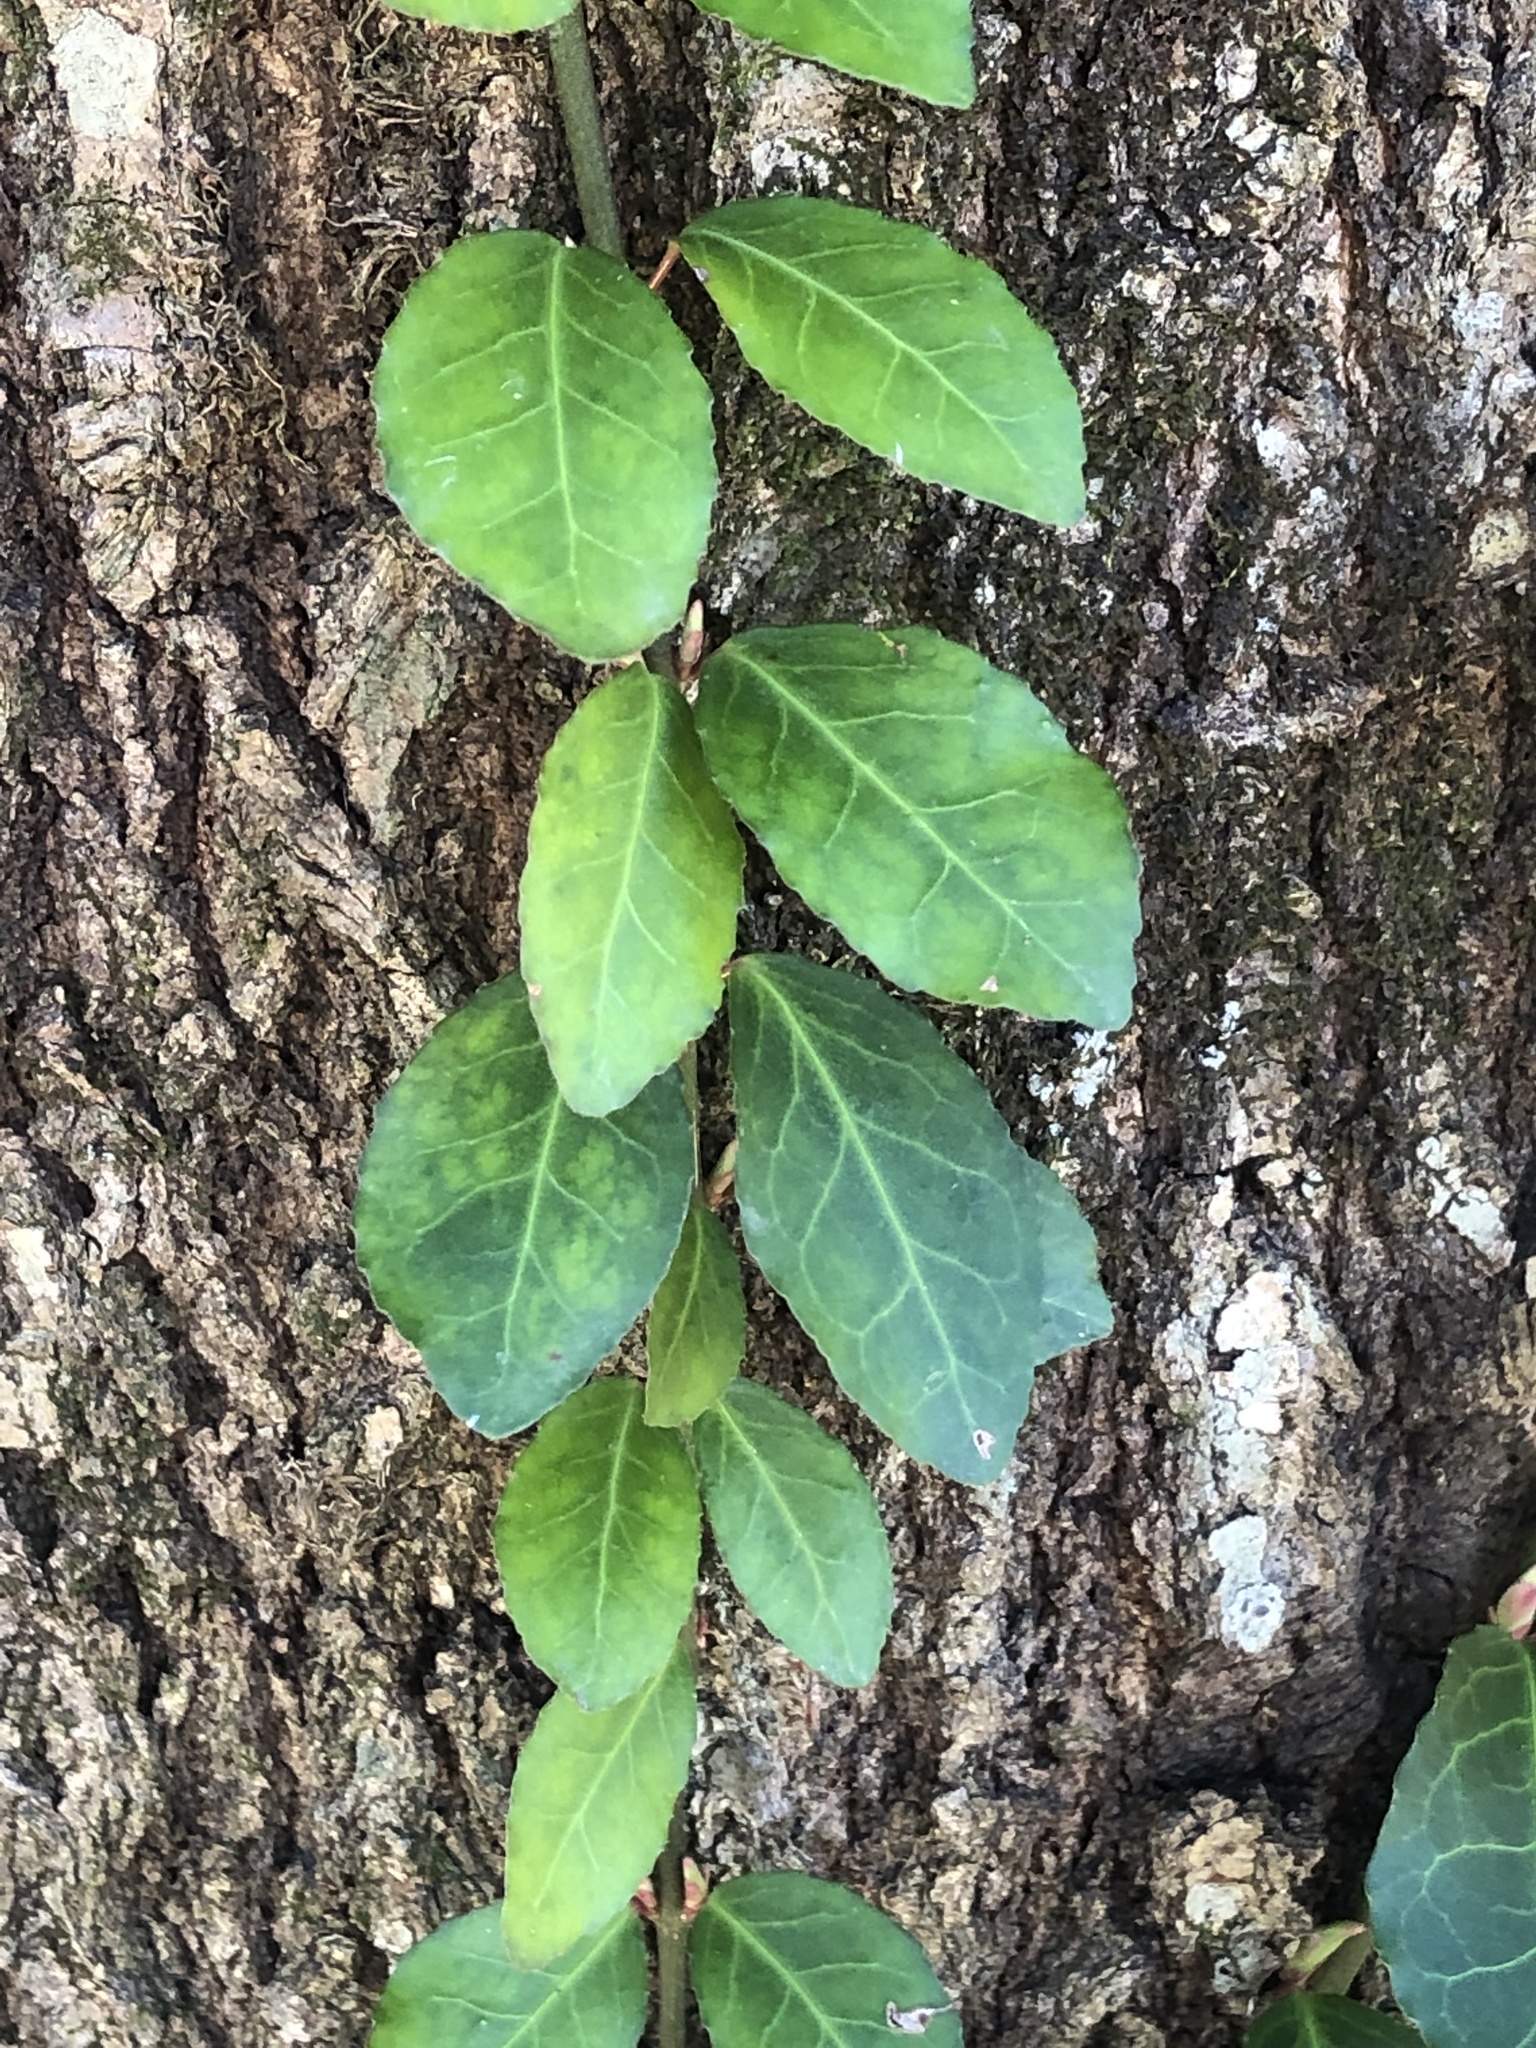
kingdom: Plantae
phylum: Tracheophyta
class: Magnoliopsida
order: Celastrales
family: Celastraceae
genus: Euonymus
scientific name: Euonymus fortunei
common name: Climbing euonymus
